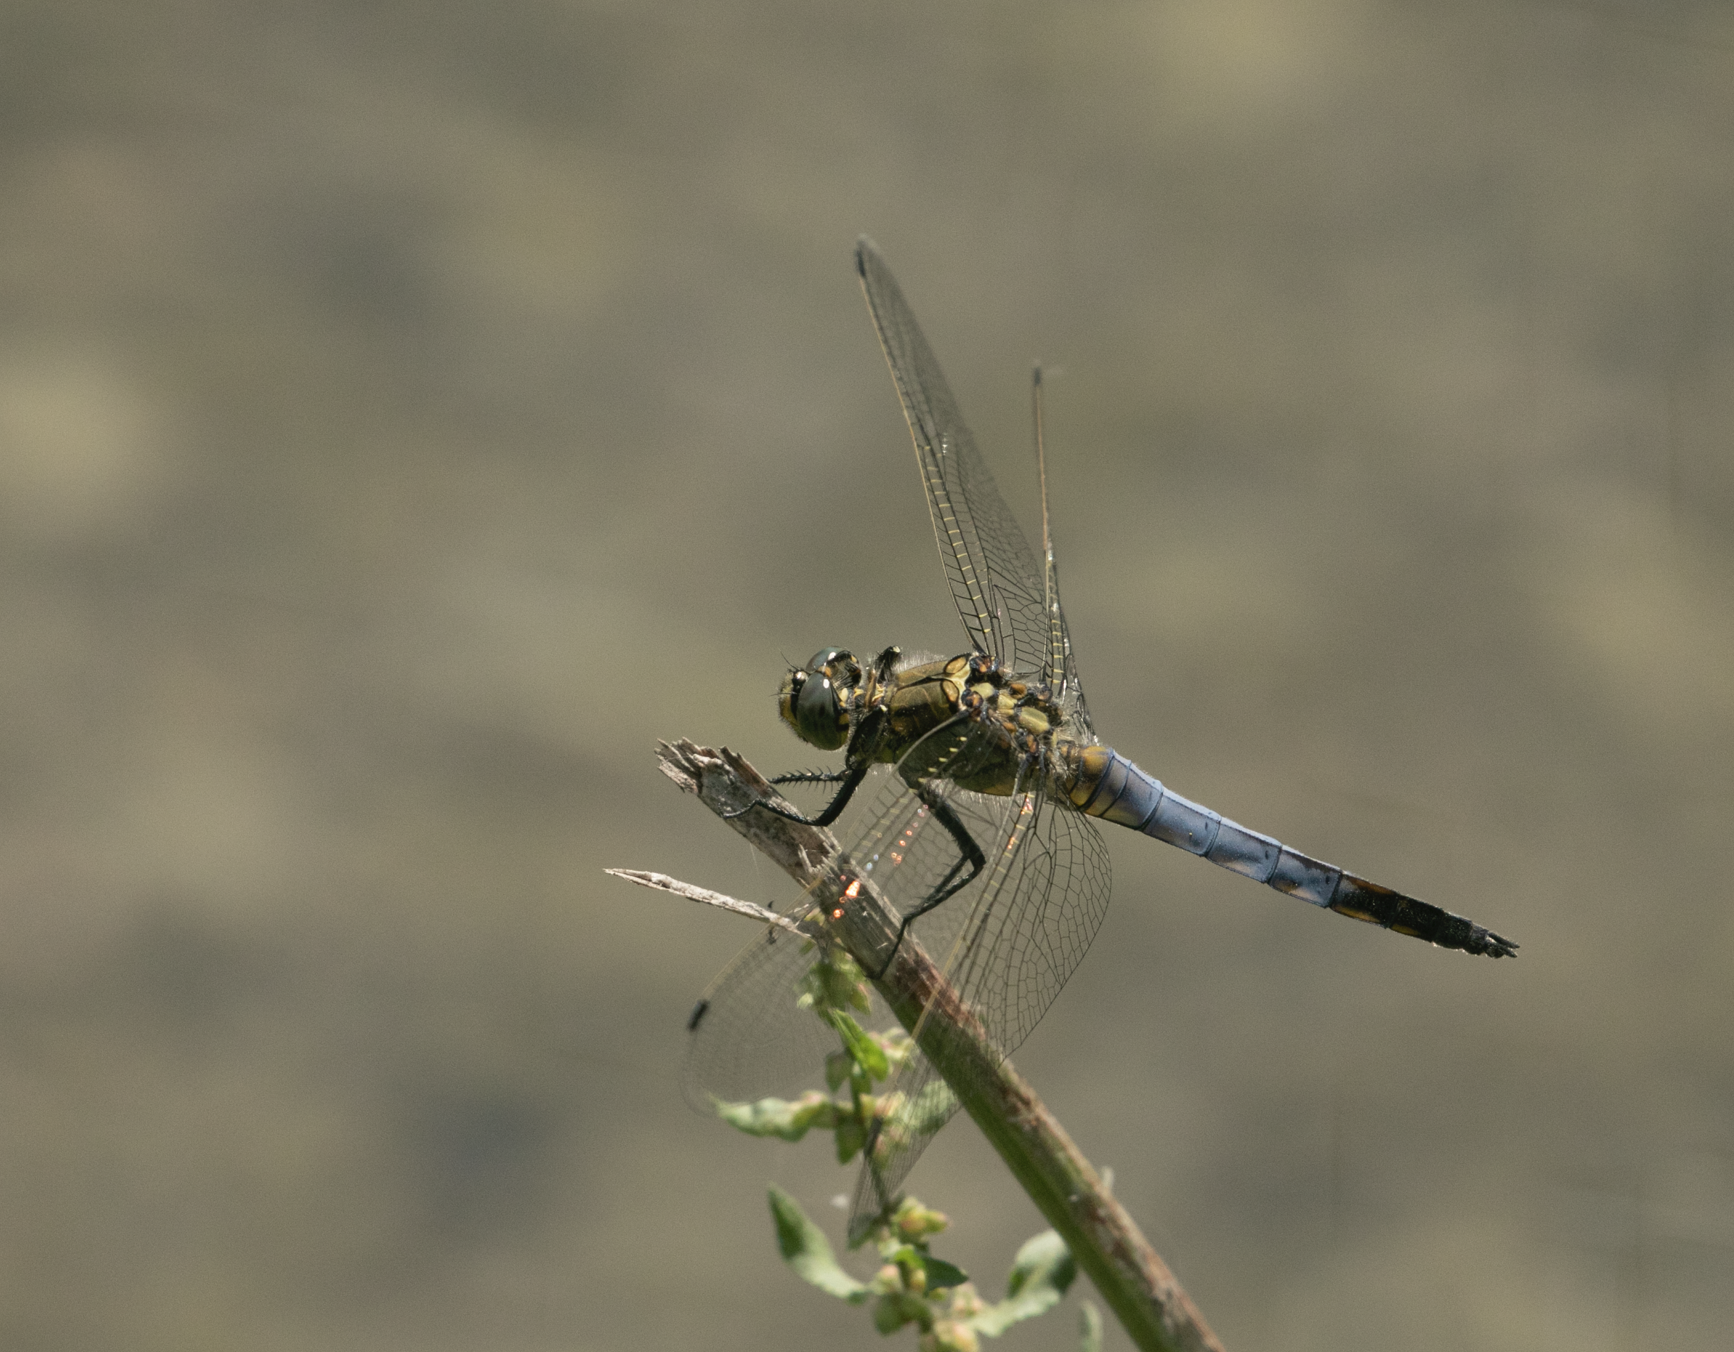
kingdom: Animalia
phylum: Arthropoda
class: Insecta
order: Odonata
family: Libellulidae
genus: Orthetrum
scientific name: Orthetrum cancellatum
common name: Black-tailed skimmer
